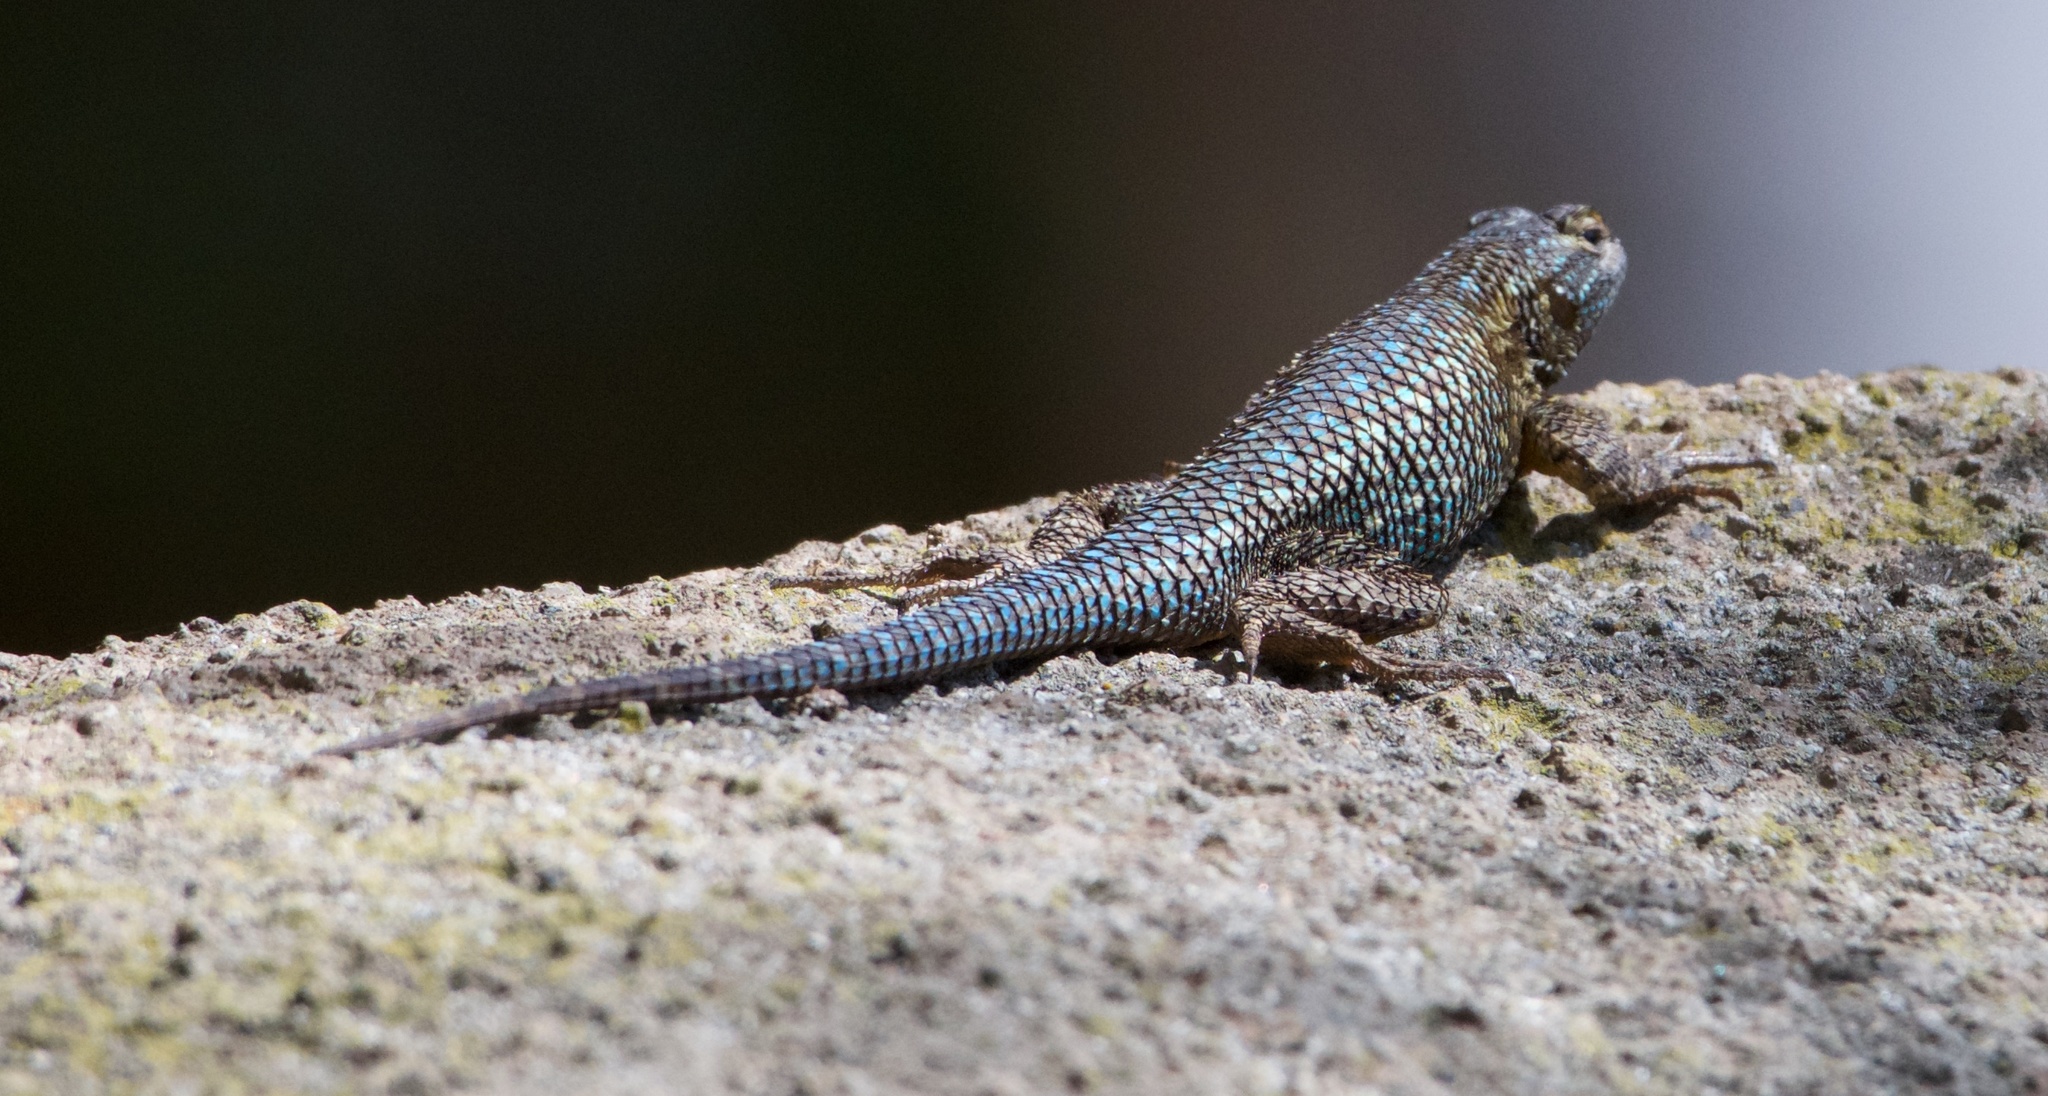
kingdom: Animalia
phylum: Chordata
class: Squamata
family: Phrynosomatidae
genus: Sceloporus
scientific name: Sceloporus occidentalis
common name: Western fence lizard
